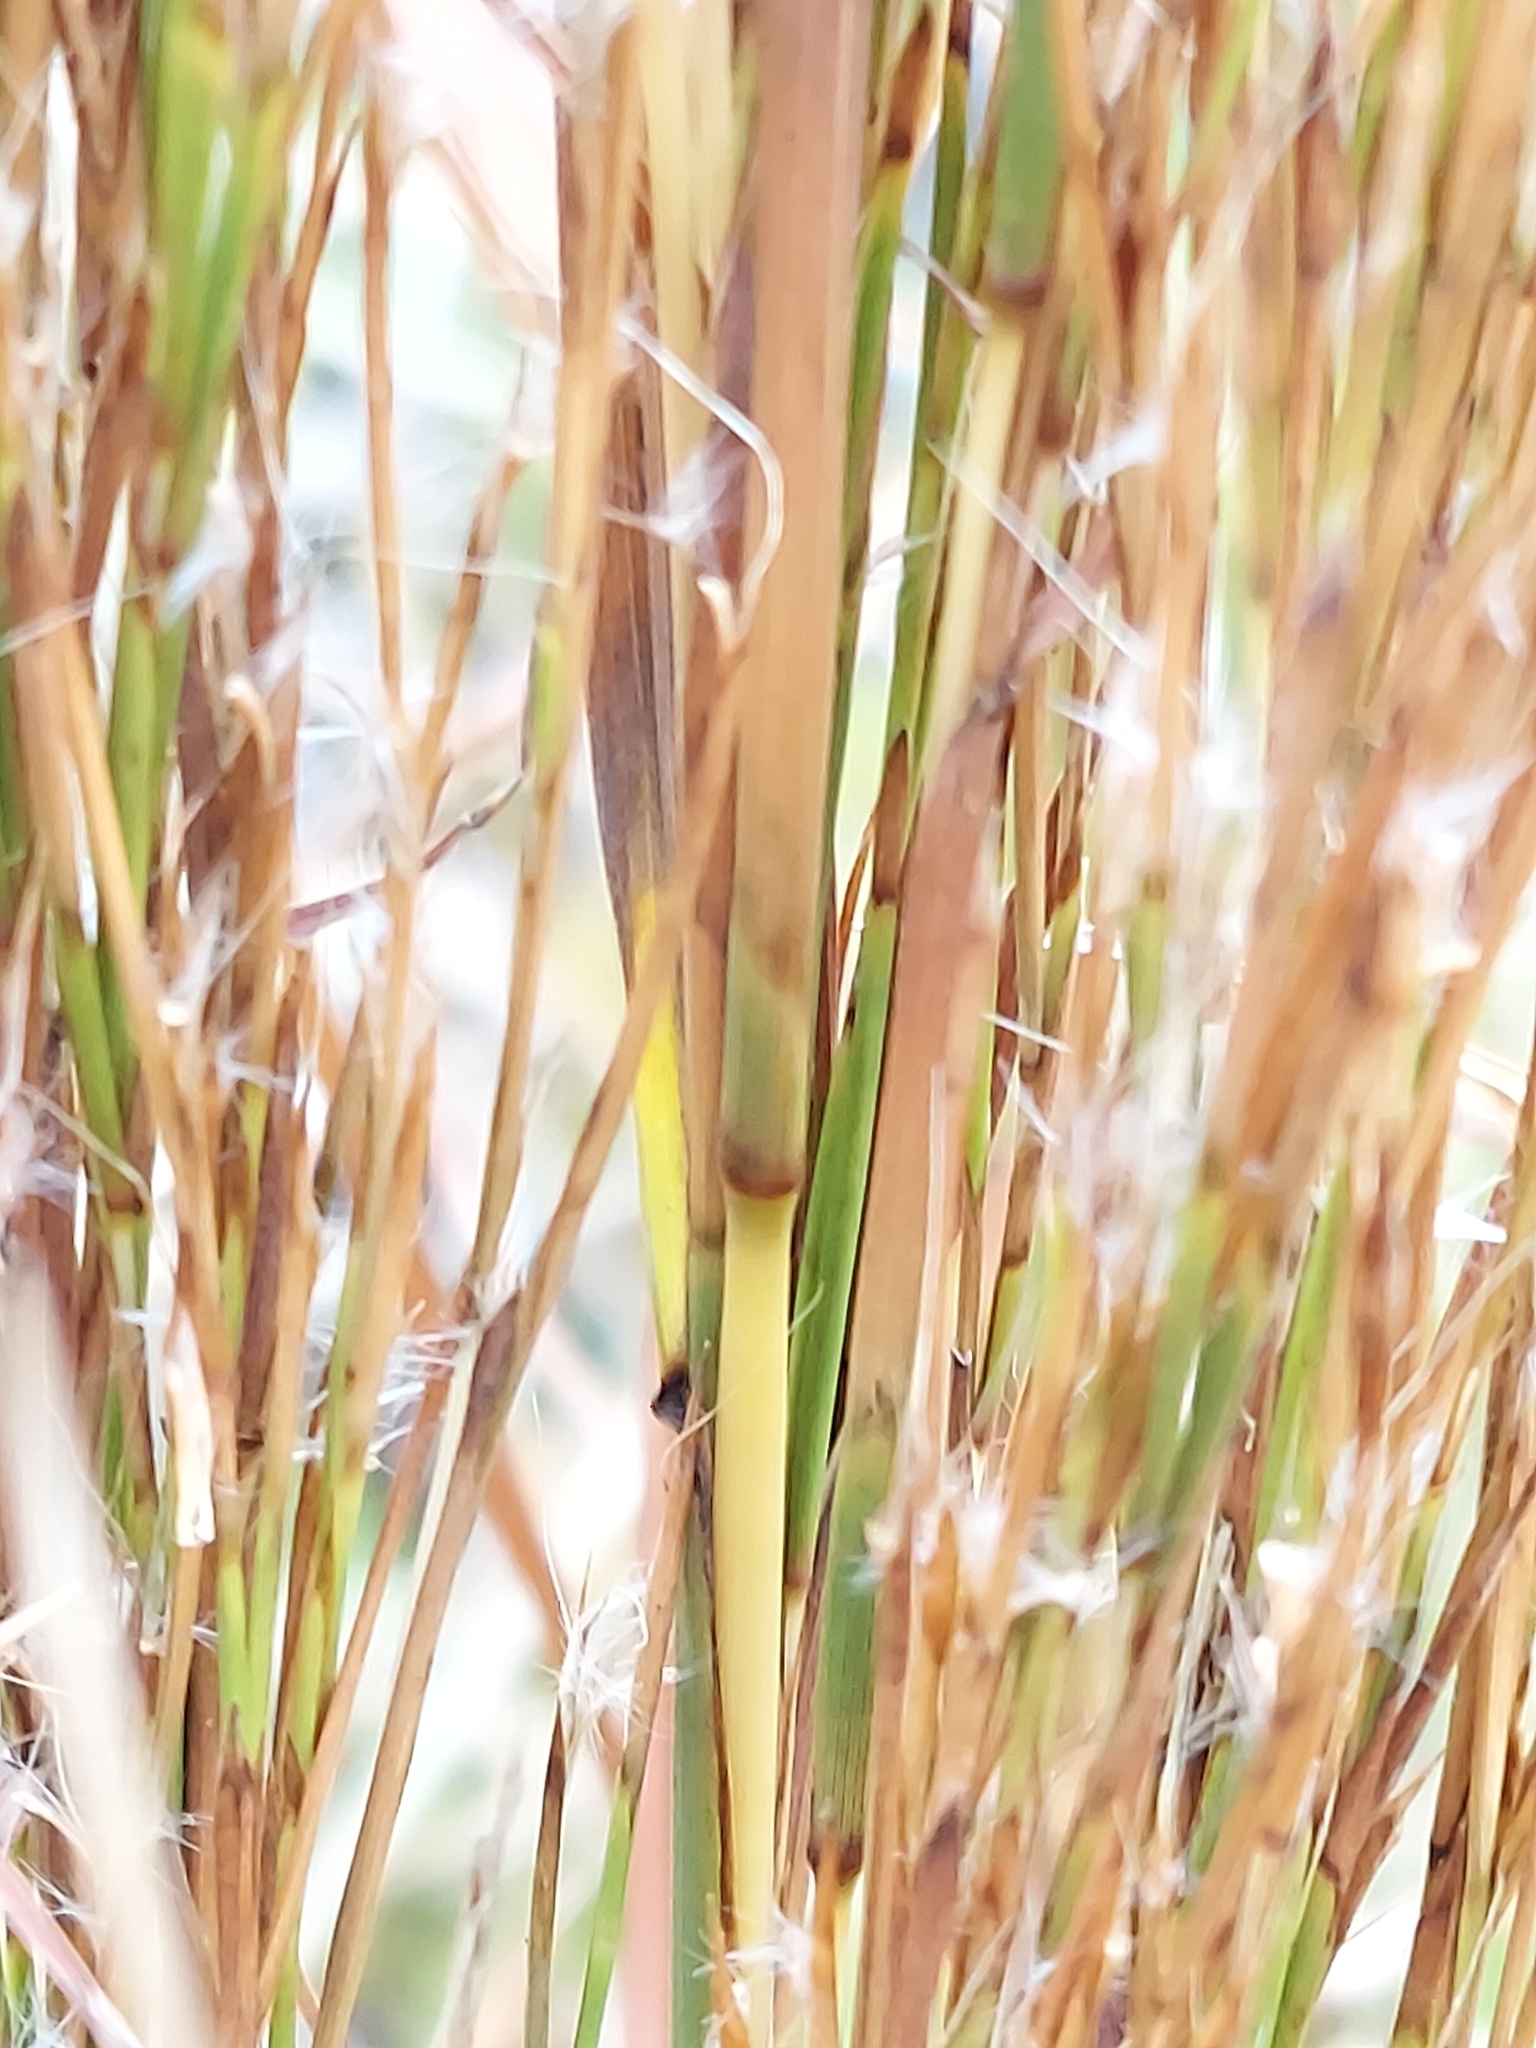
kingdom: Plantae
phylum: Tracheophyta
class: Liliopsida
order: Poales
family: Poaceae
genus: Schizachyrium
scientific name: Schizachyrium microstachyum
